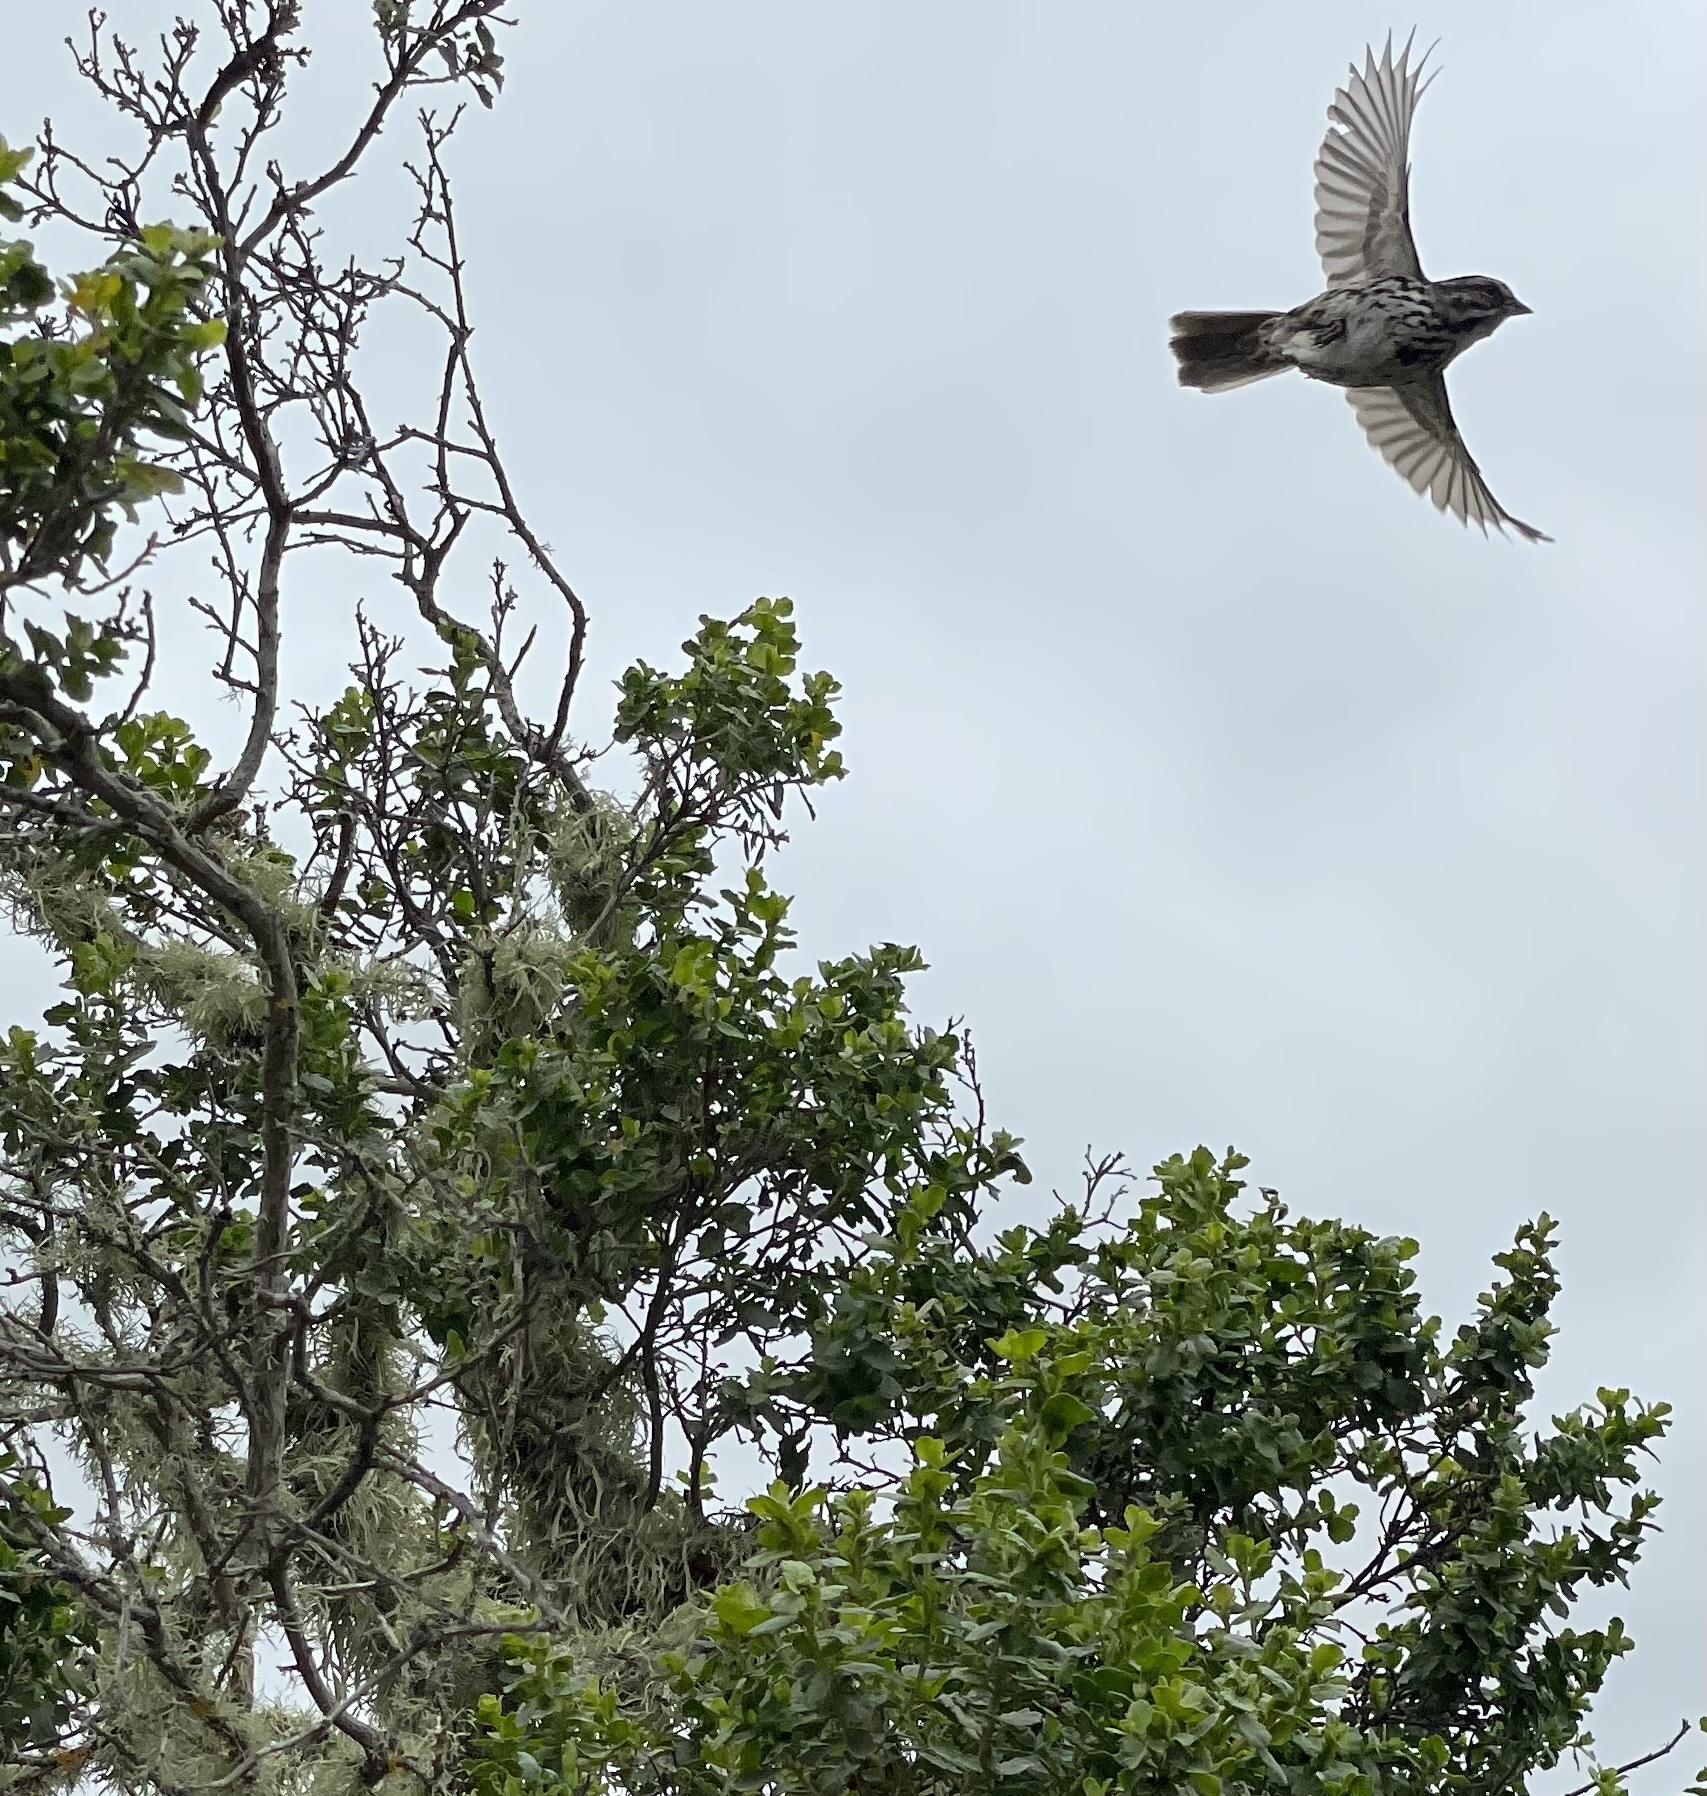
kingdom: Animalia
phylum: Chordata
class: Aves
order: Passeriformes
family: Passerellidae
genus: Melospiza
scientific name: Melospiza melodia
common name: Song sparrow
